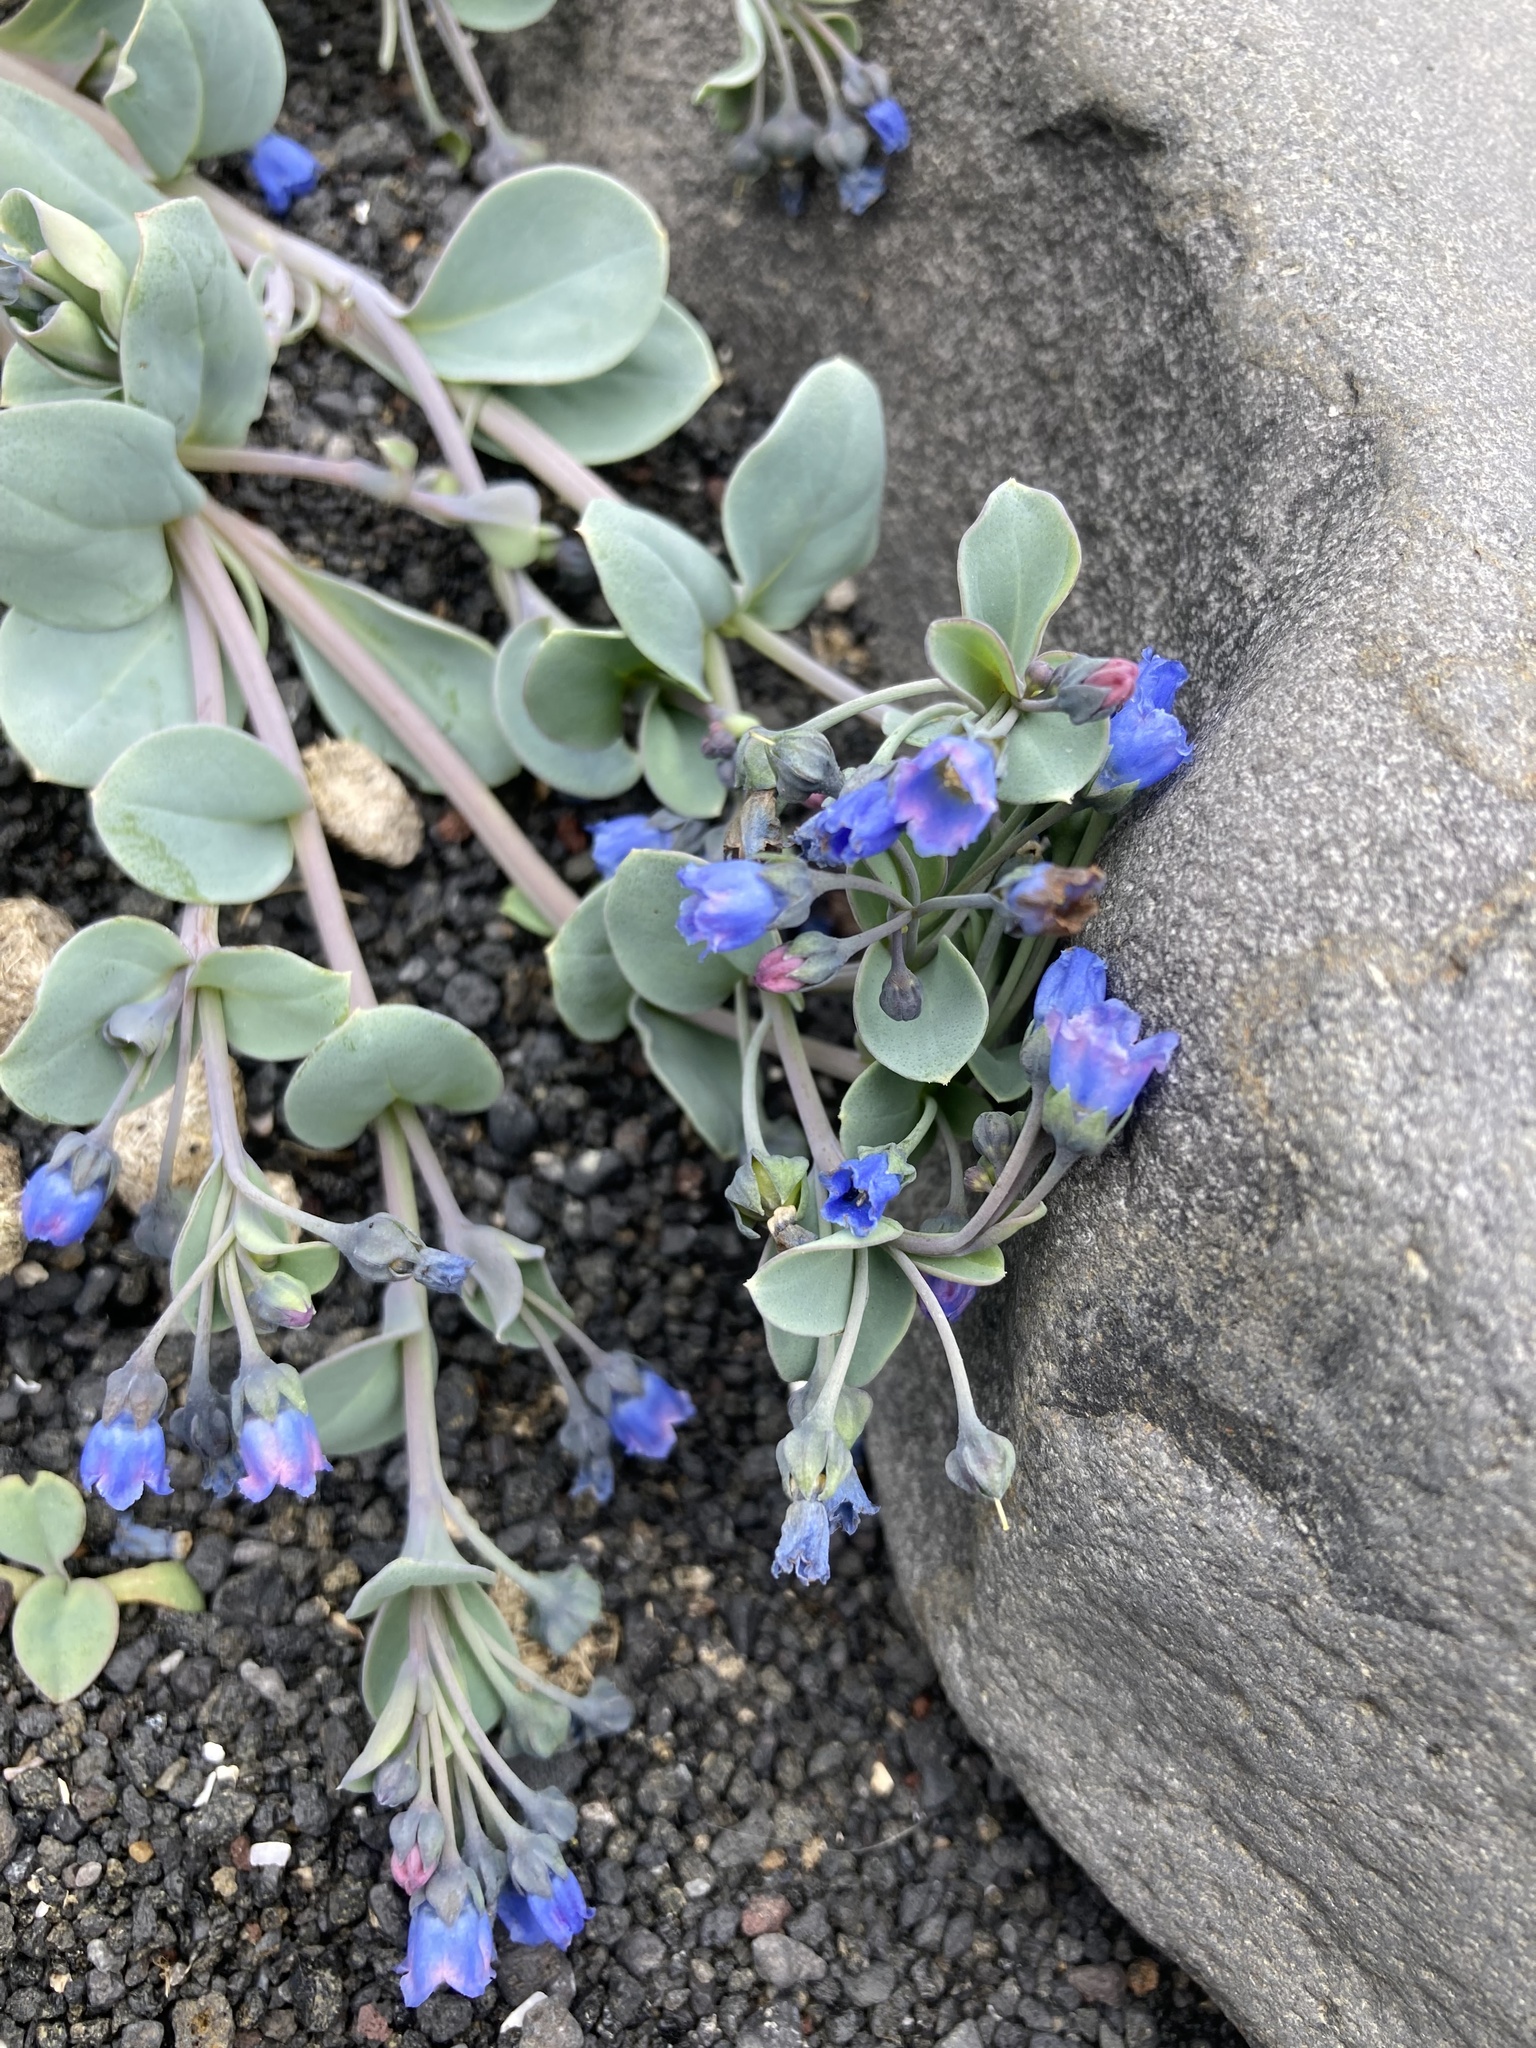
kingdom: Plantae
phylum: Tracheophyta
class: Magnoliopsida
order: Boraginales
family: Boraginaceae
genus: Mertensia
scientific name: Mertensia maritima
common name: Oysterplant
